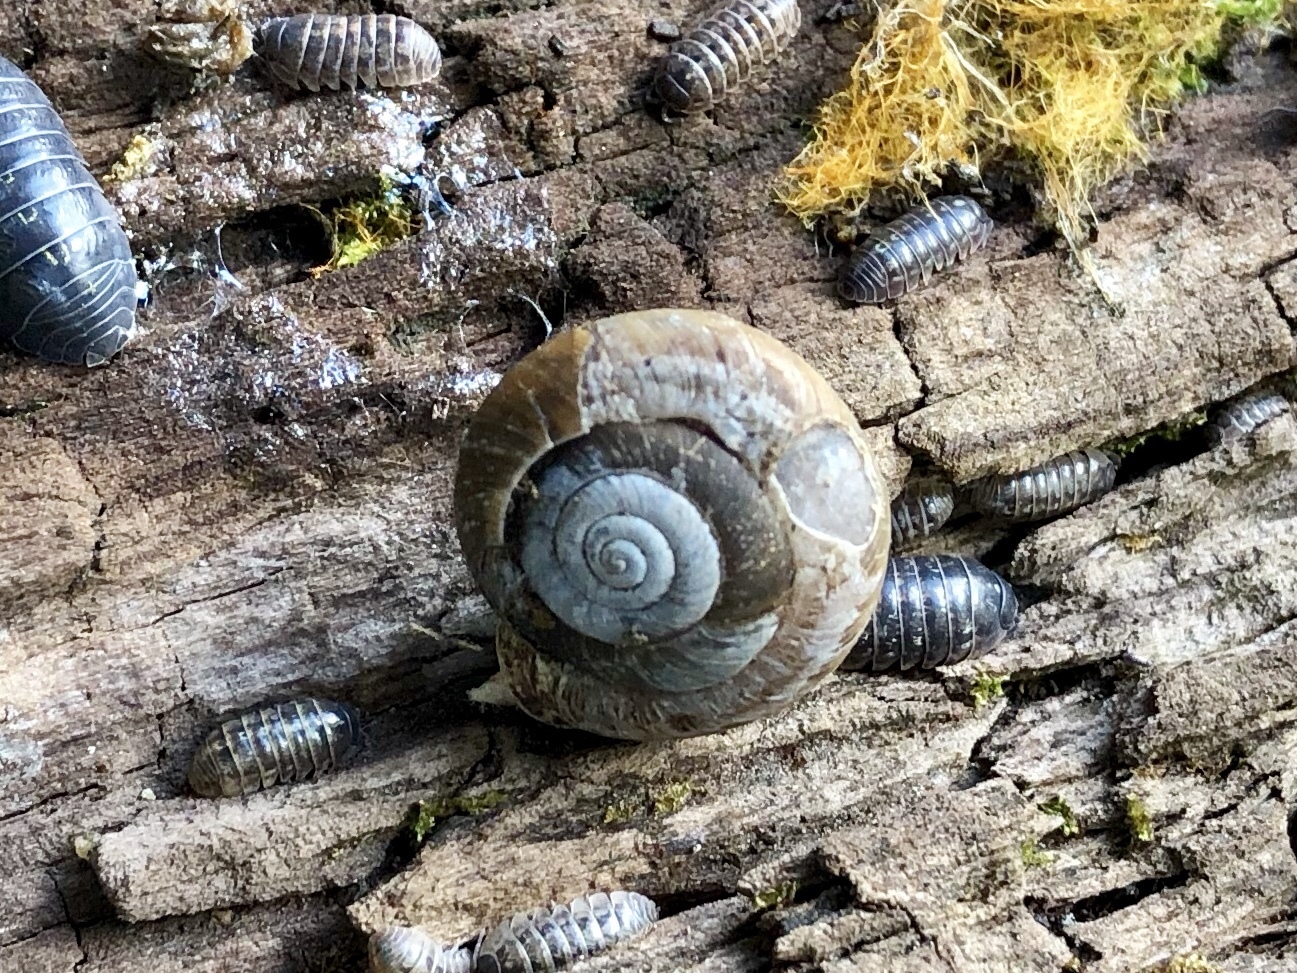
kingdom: Animalia
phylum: Mollusca
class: Gastropoda
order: Stylommatophora
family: Polygyridae
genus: Ashmunella
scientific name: Ashmunella rhyssa
